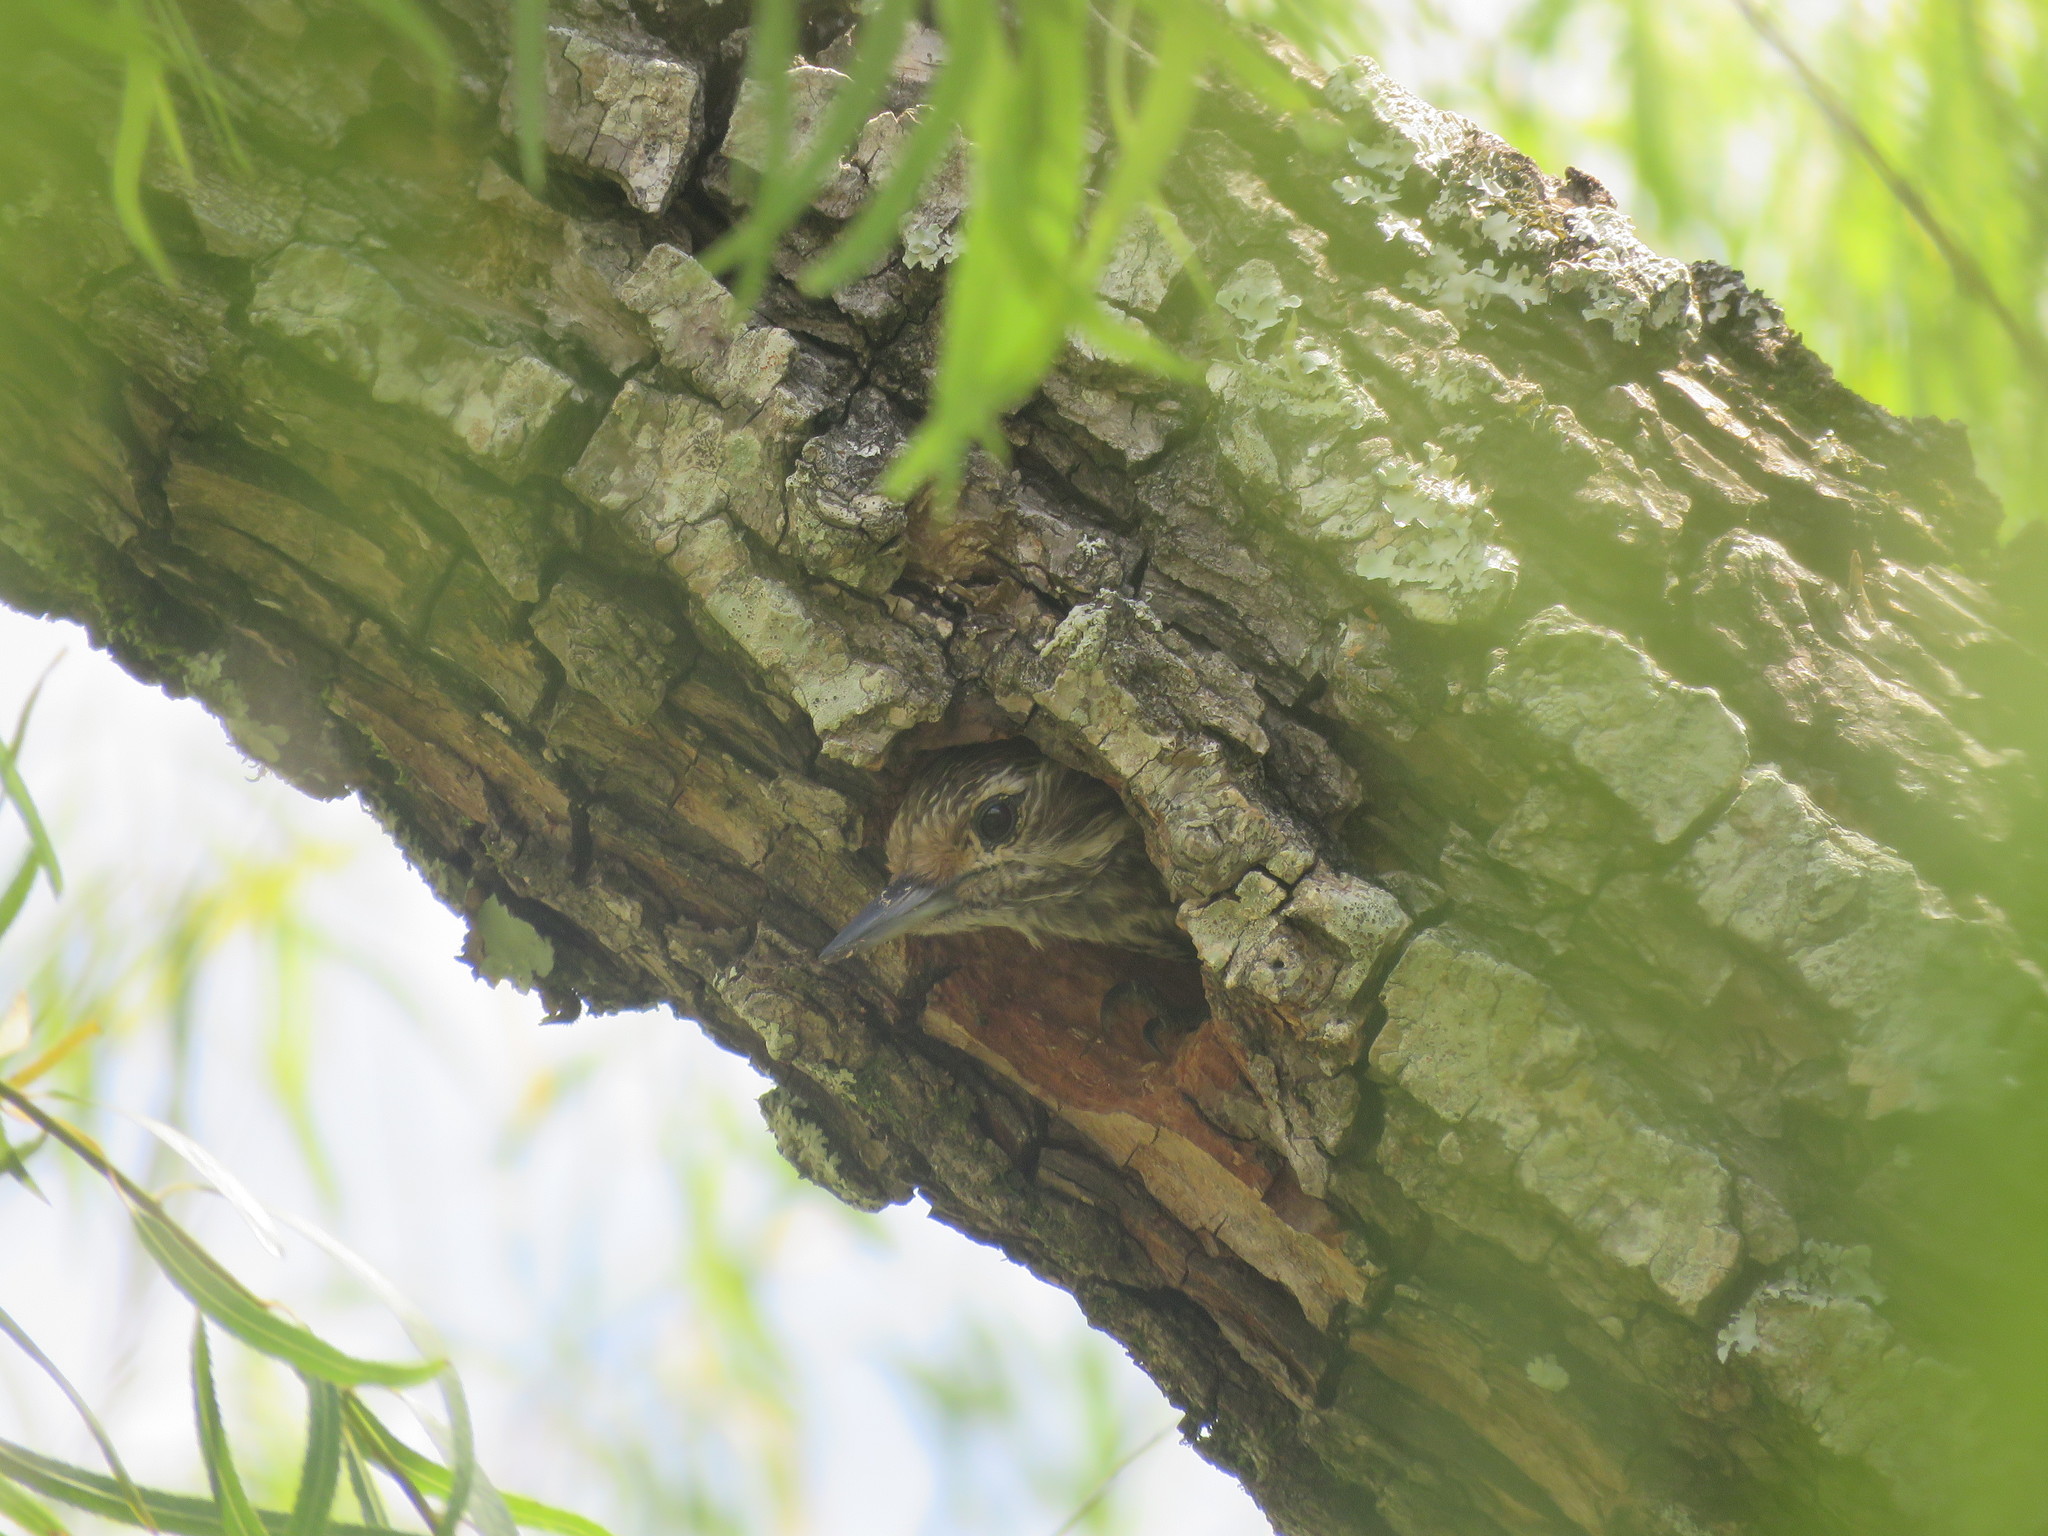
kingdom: Animalia
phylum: Chordata
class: Aves
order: Piciformes
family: Picidae
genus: Veniliornis
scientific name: Veniliornis spilogaster
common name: White-spotted woodpecker
